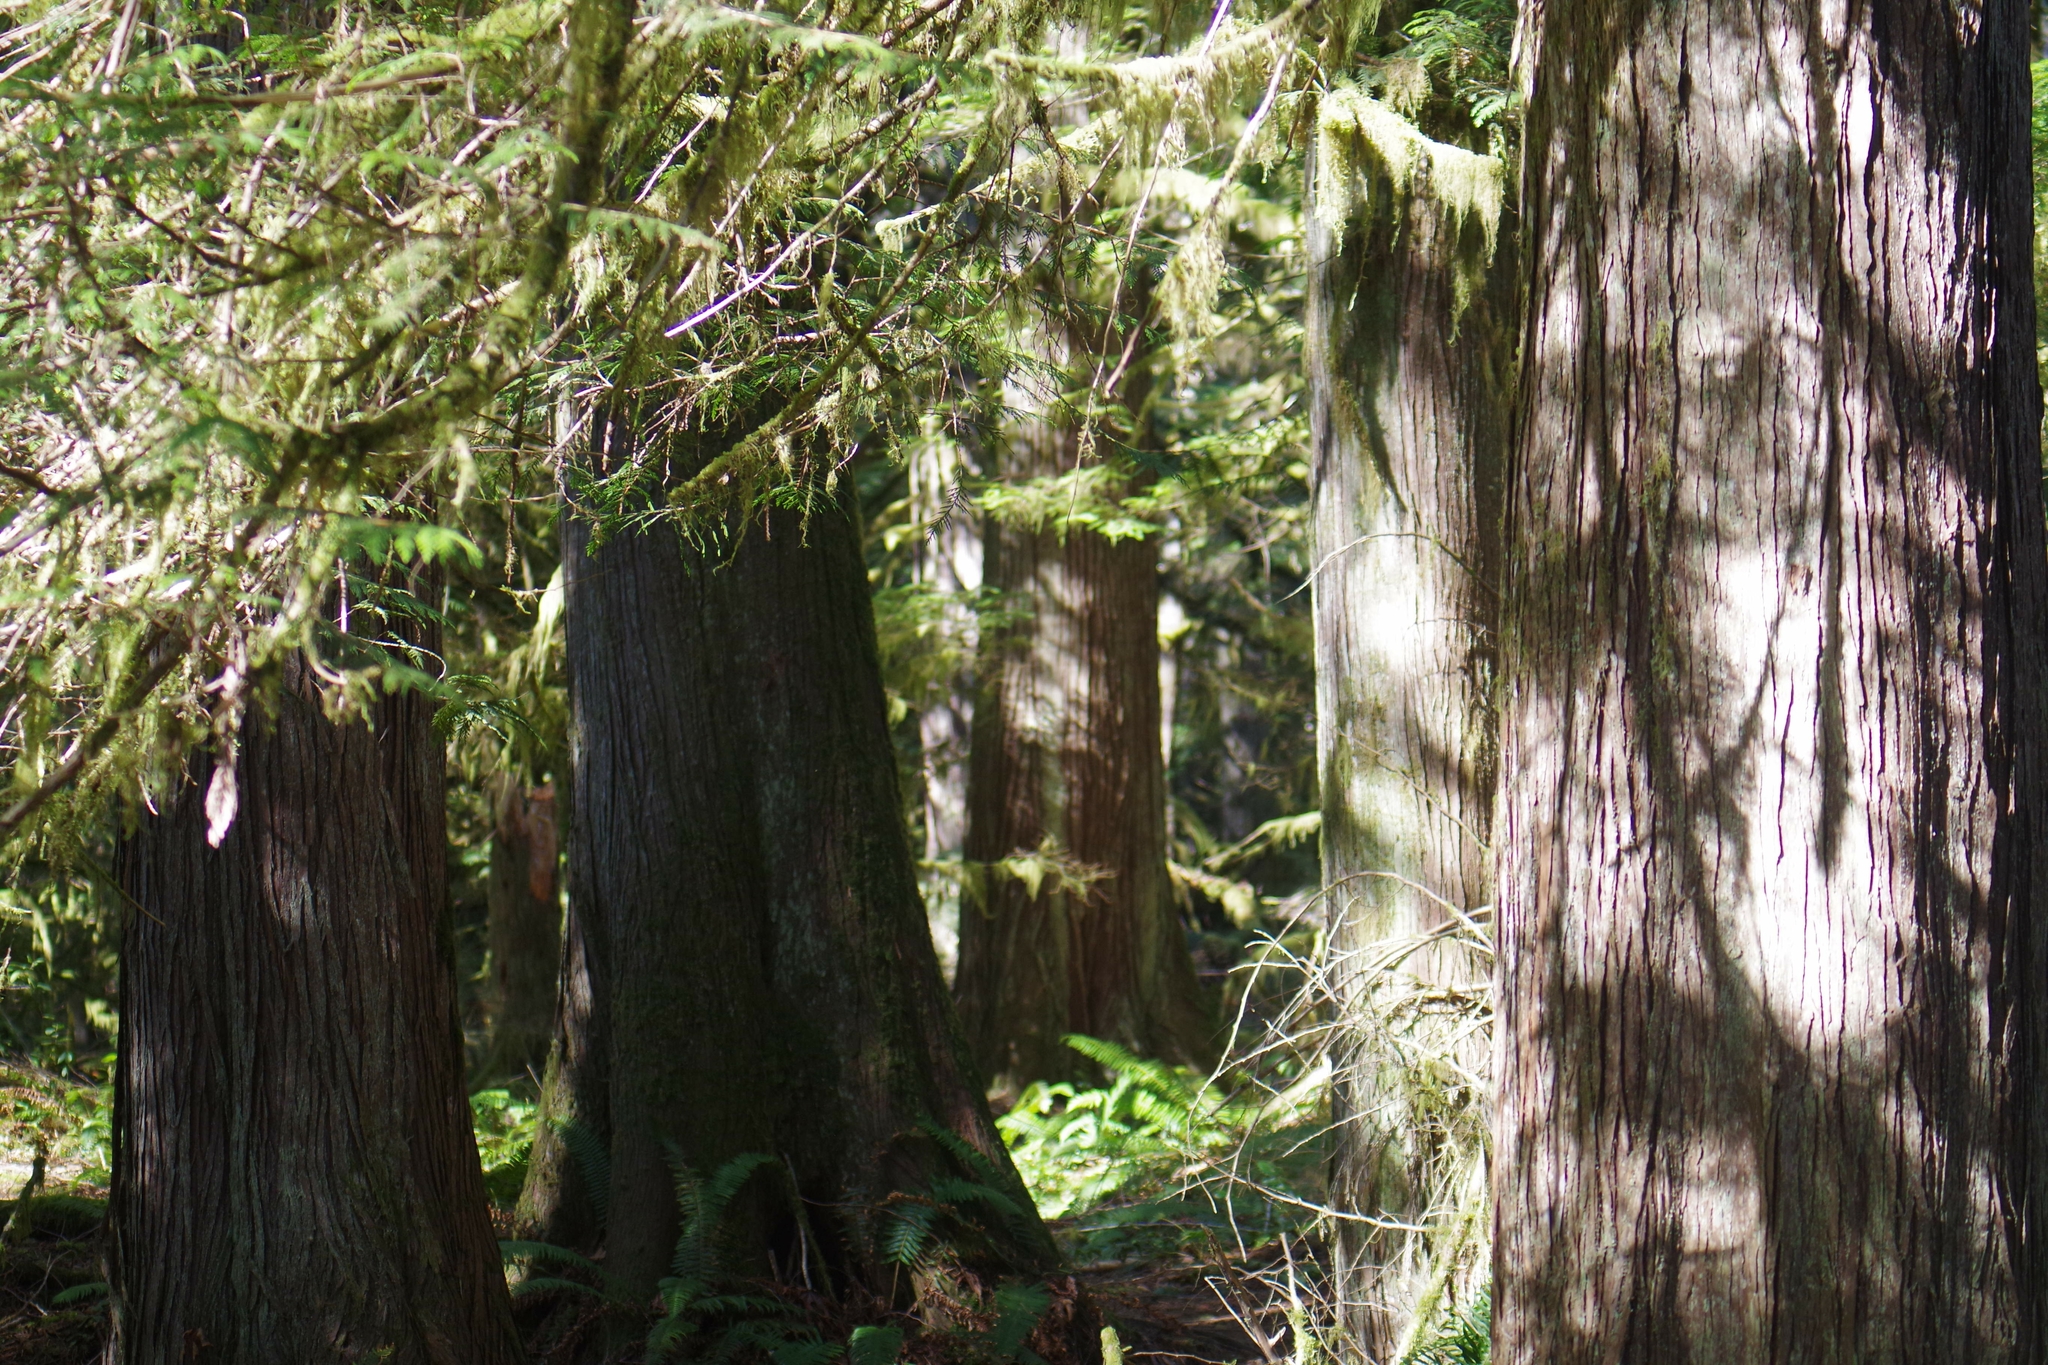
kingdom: Plantae
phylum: Tracheophyta
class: Pinopsida
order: Pinales
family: Cupressaceae
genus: Thuja
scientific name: Thuja plicata
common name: Western red-cedar
